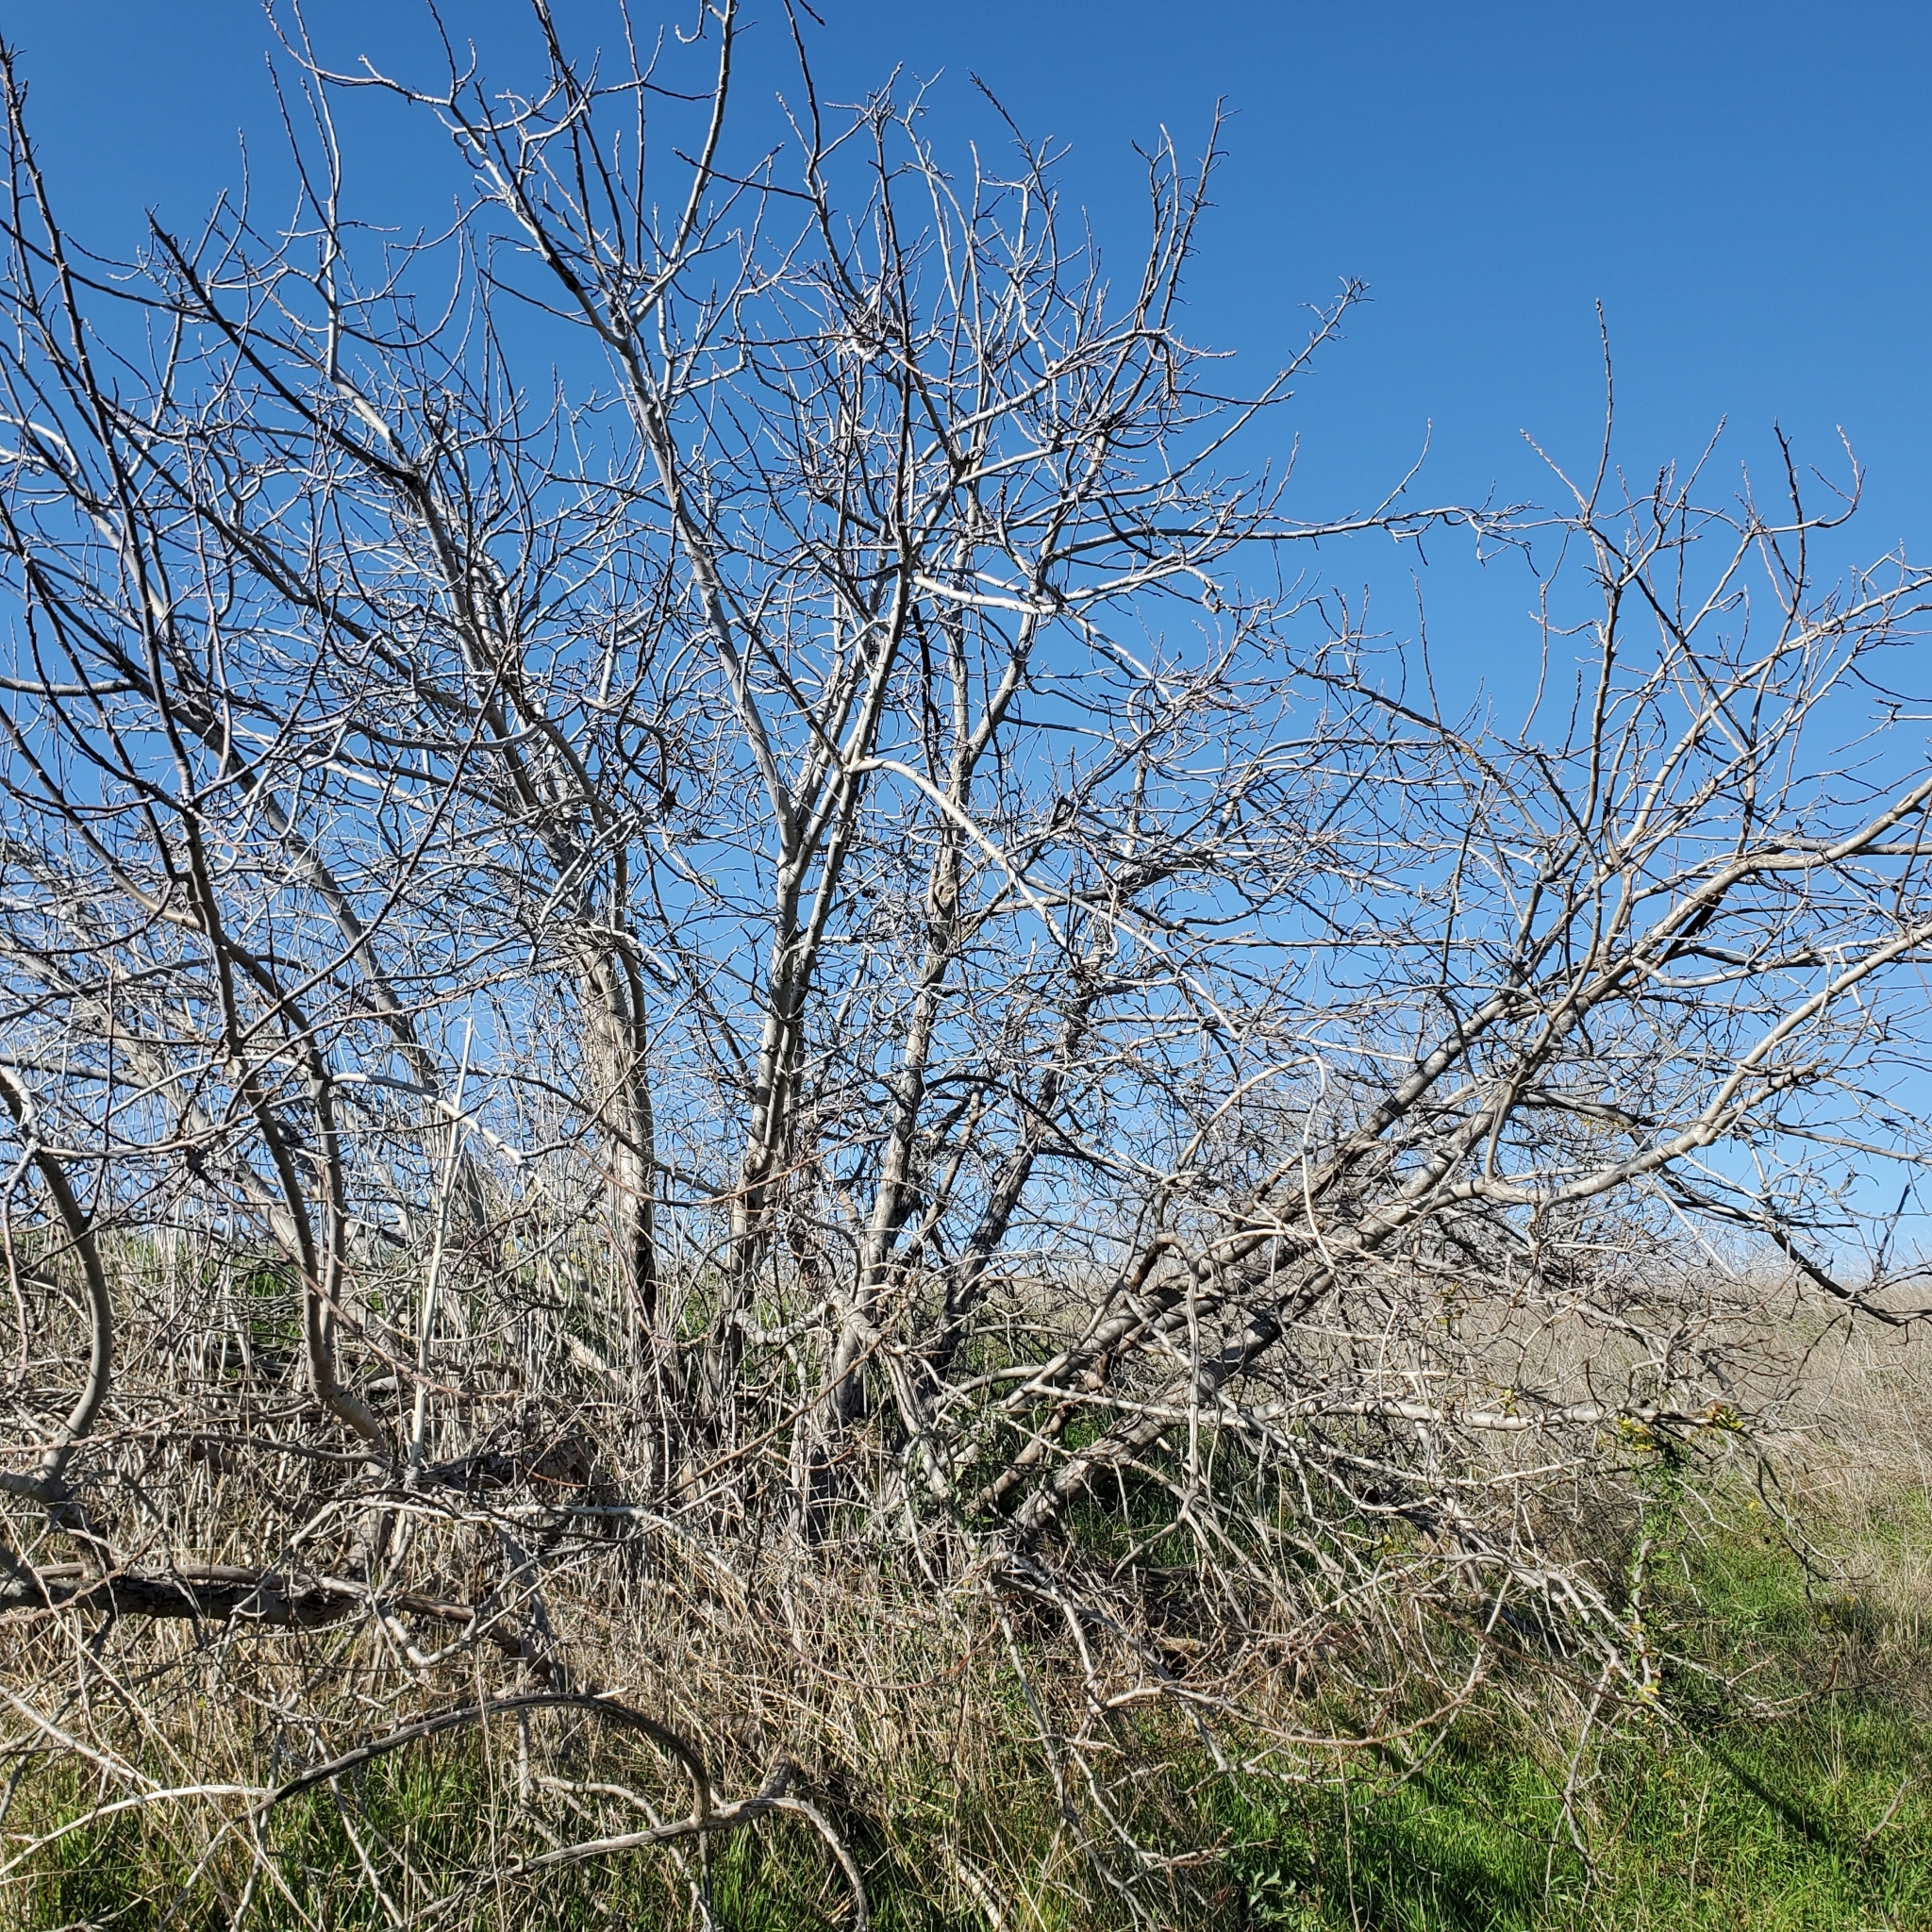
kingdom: Plantae
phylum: Tracheophyta
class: Magnoliopsida
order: Fagales
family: Juglandaceae
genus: Juglans
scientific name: Juglans californica
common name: Southern california black walnut
